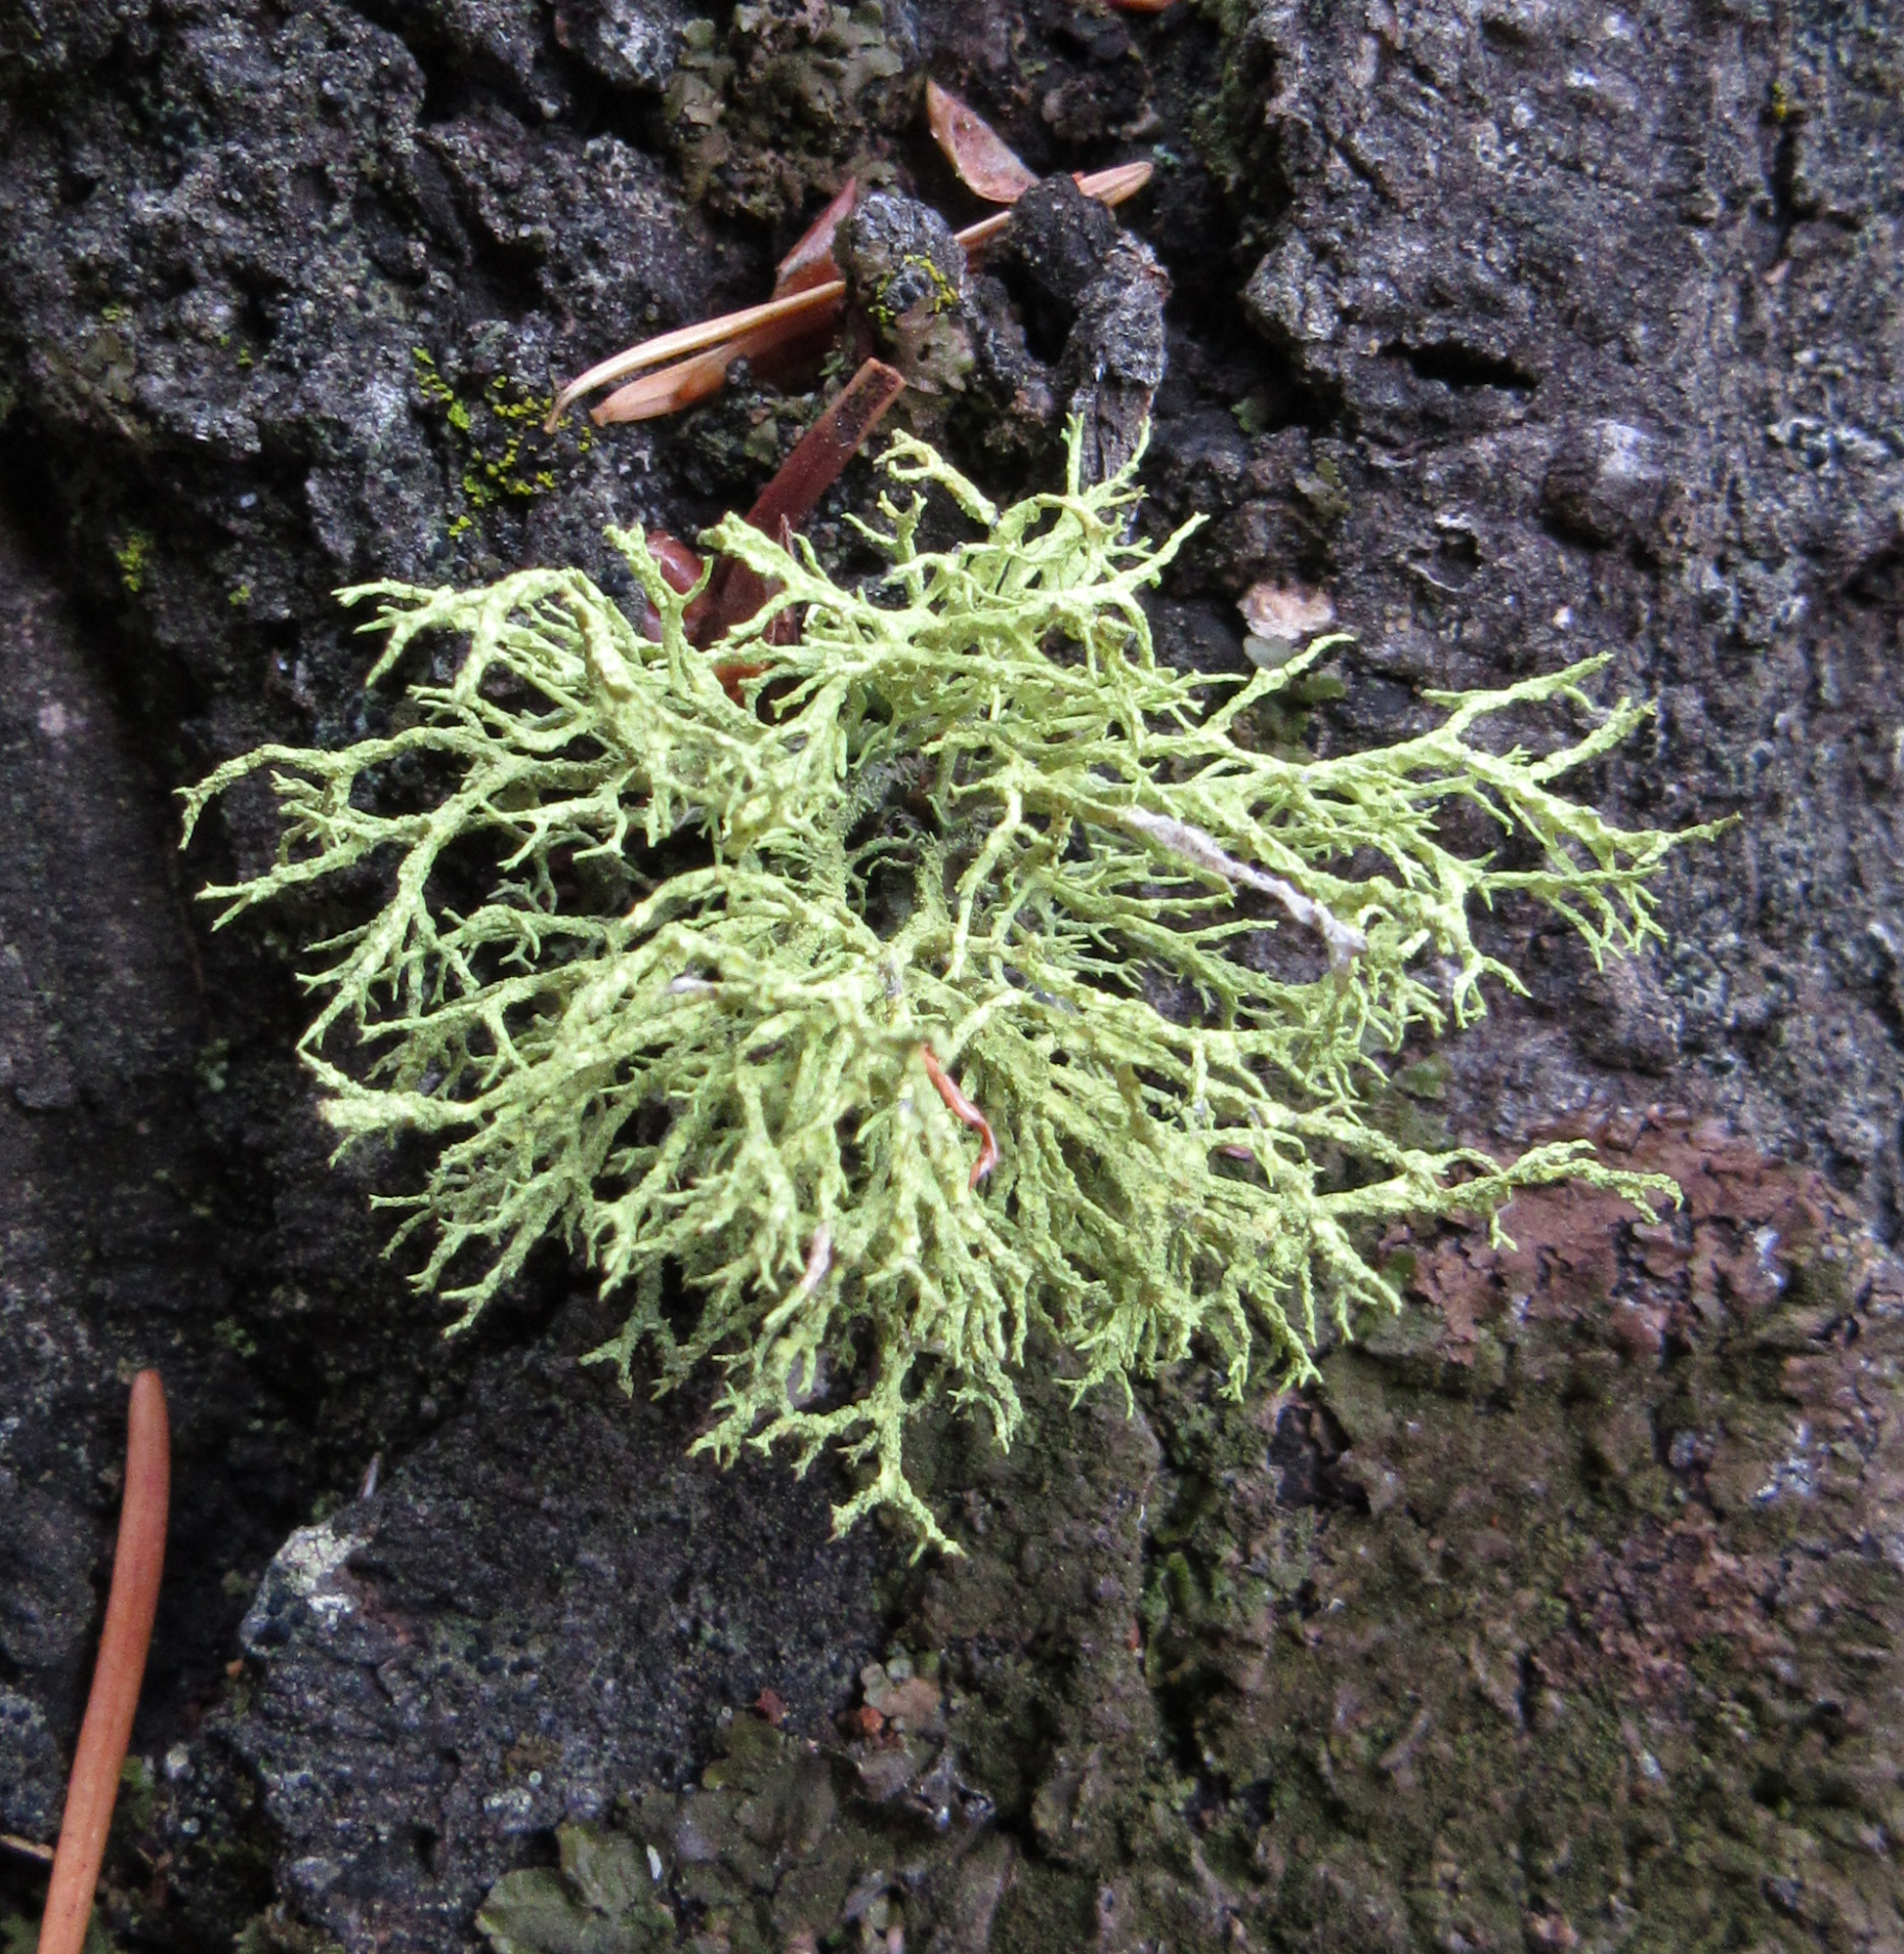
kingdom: Fungi
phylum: Ascomycota
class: Lecanoromycetes
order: Lecanorales
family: Parmeliaceae
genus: Letharia
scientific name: Letharia vulpina
